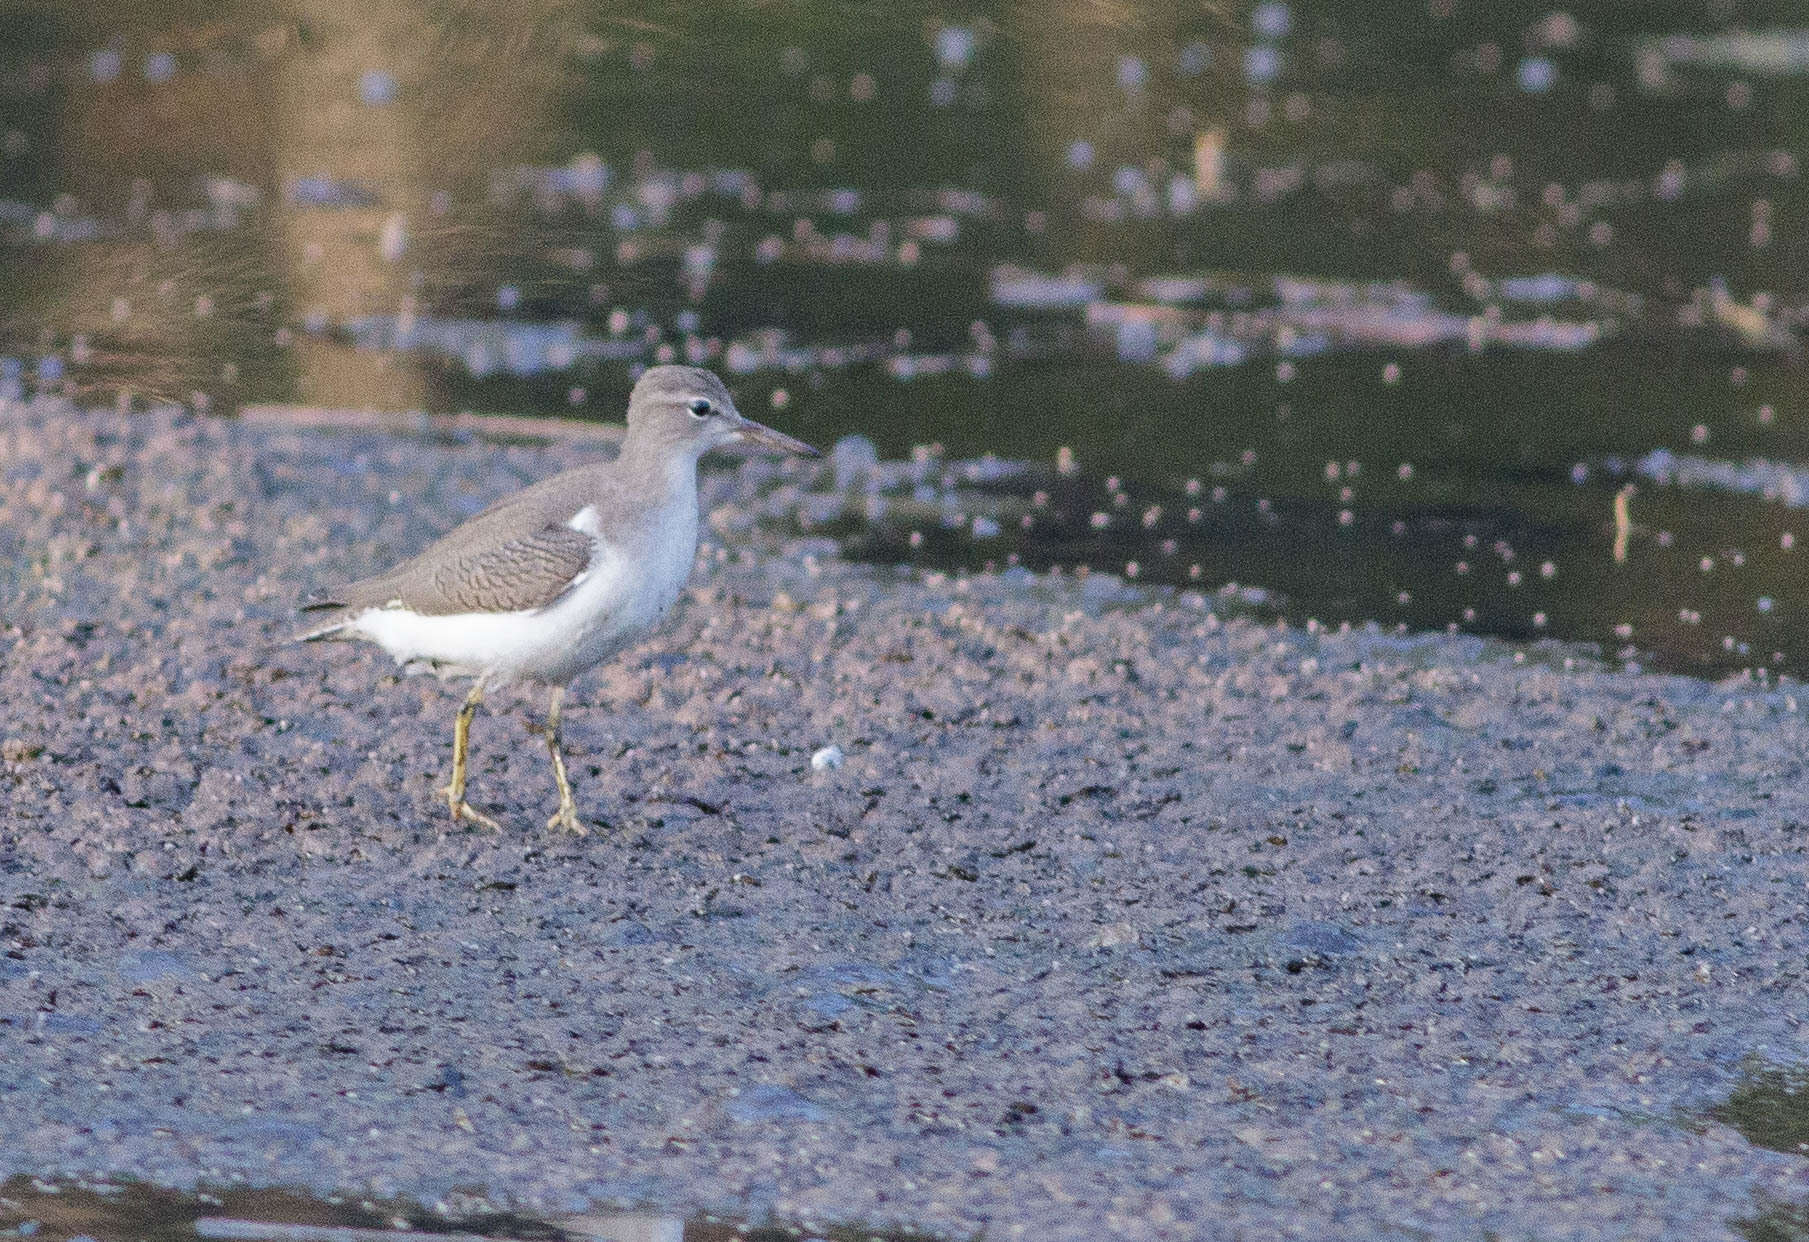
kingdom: Animalia
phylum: Chordata
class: Aves
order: Charadriiformes
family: Scolopacidae
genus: Actitis
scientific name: Actitis macularius
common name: Spotted sandpiper
